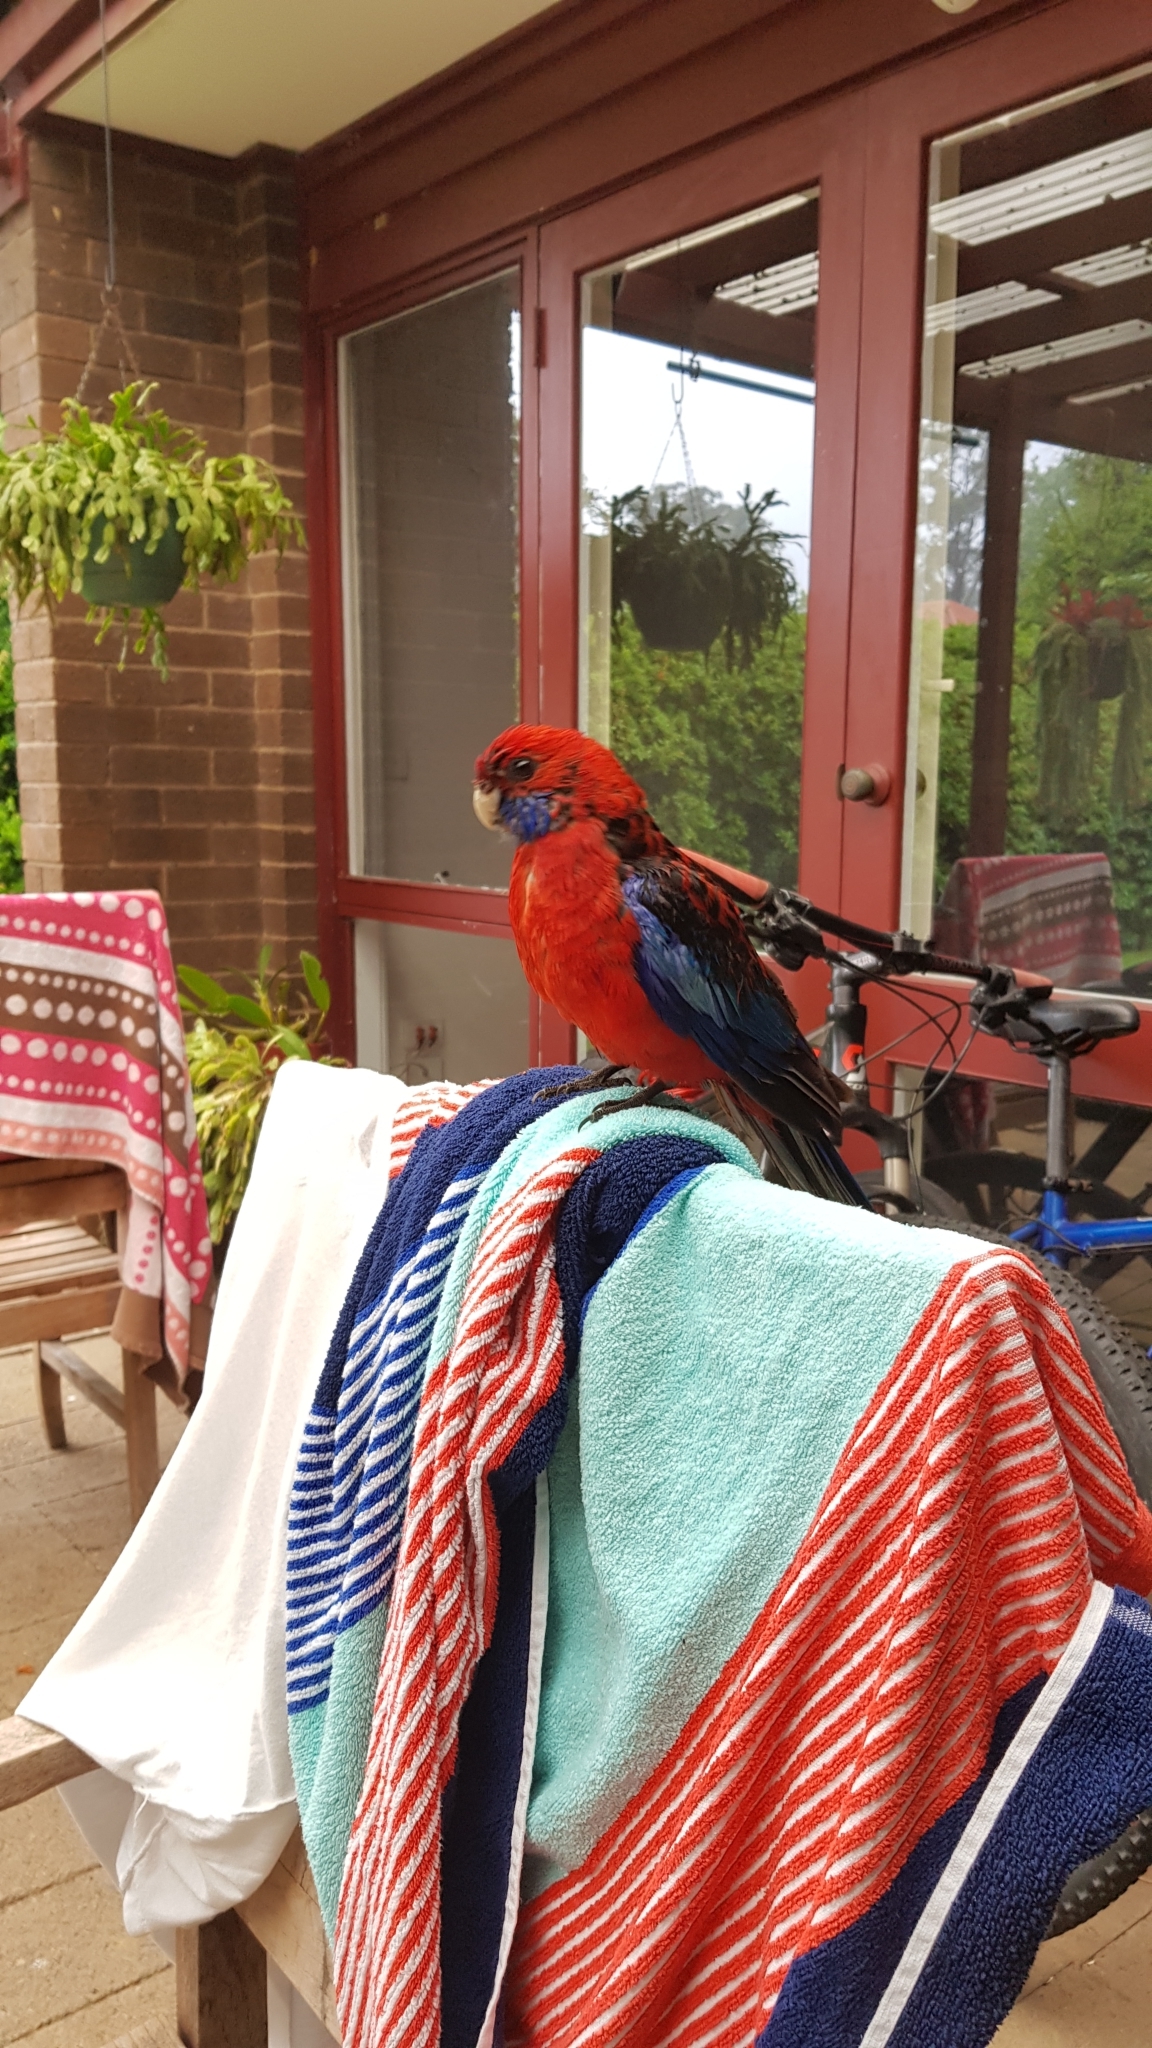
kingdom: Animalia
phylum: Chordata
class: Aves
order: Psittaciformes
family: Psittacidae
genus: Platycercus
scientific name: Platycercus elegans
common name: Crimson rosella
